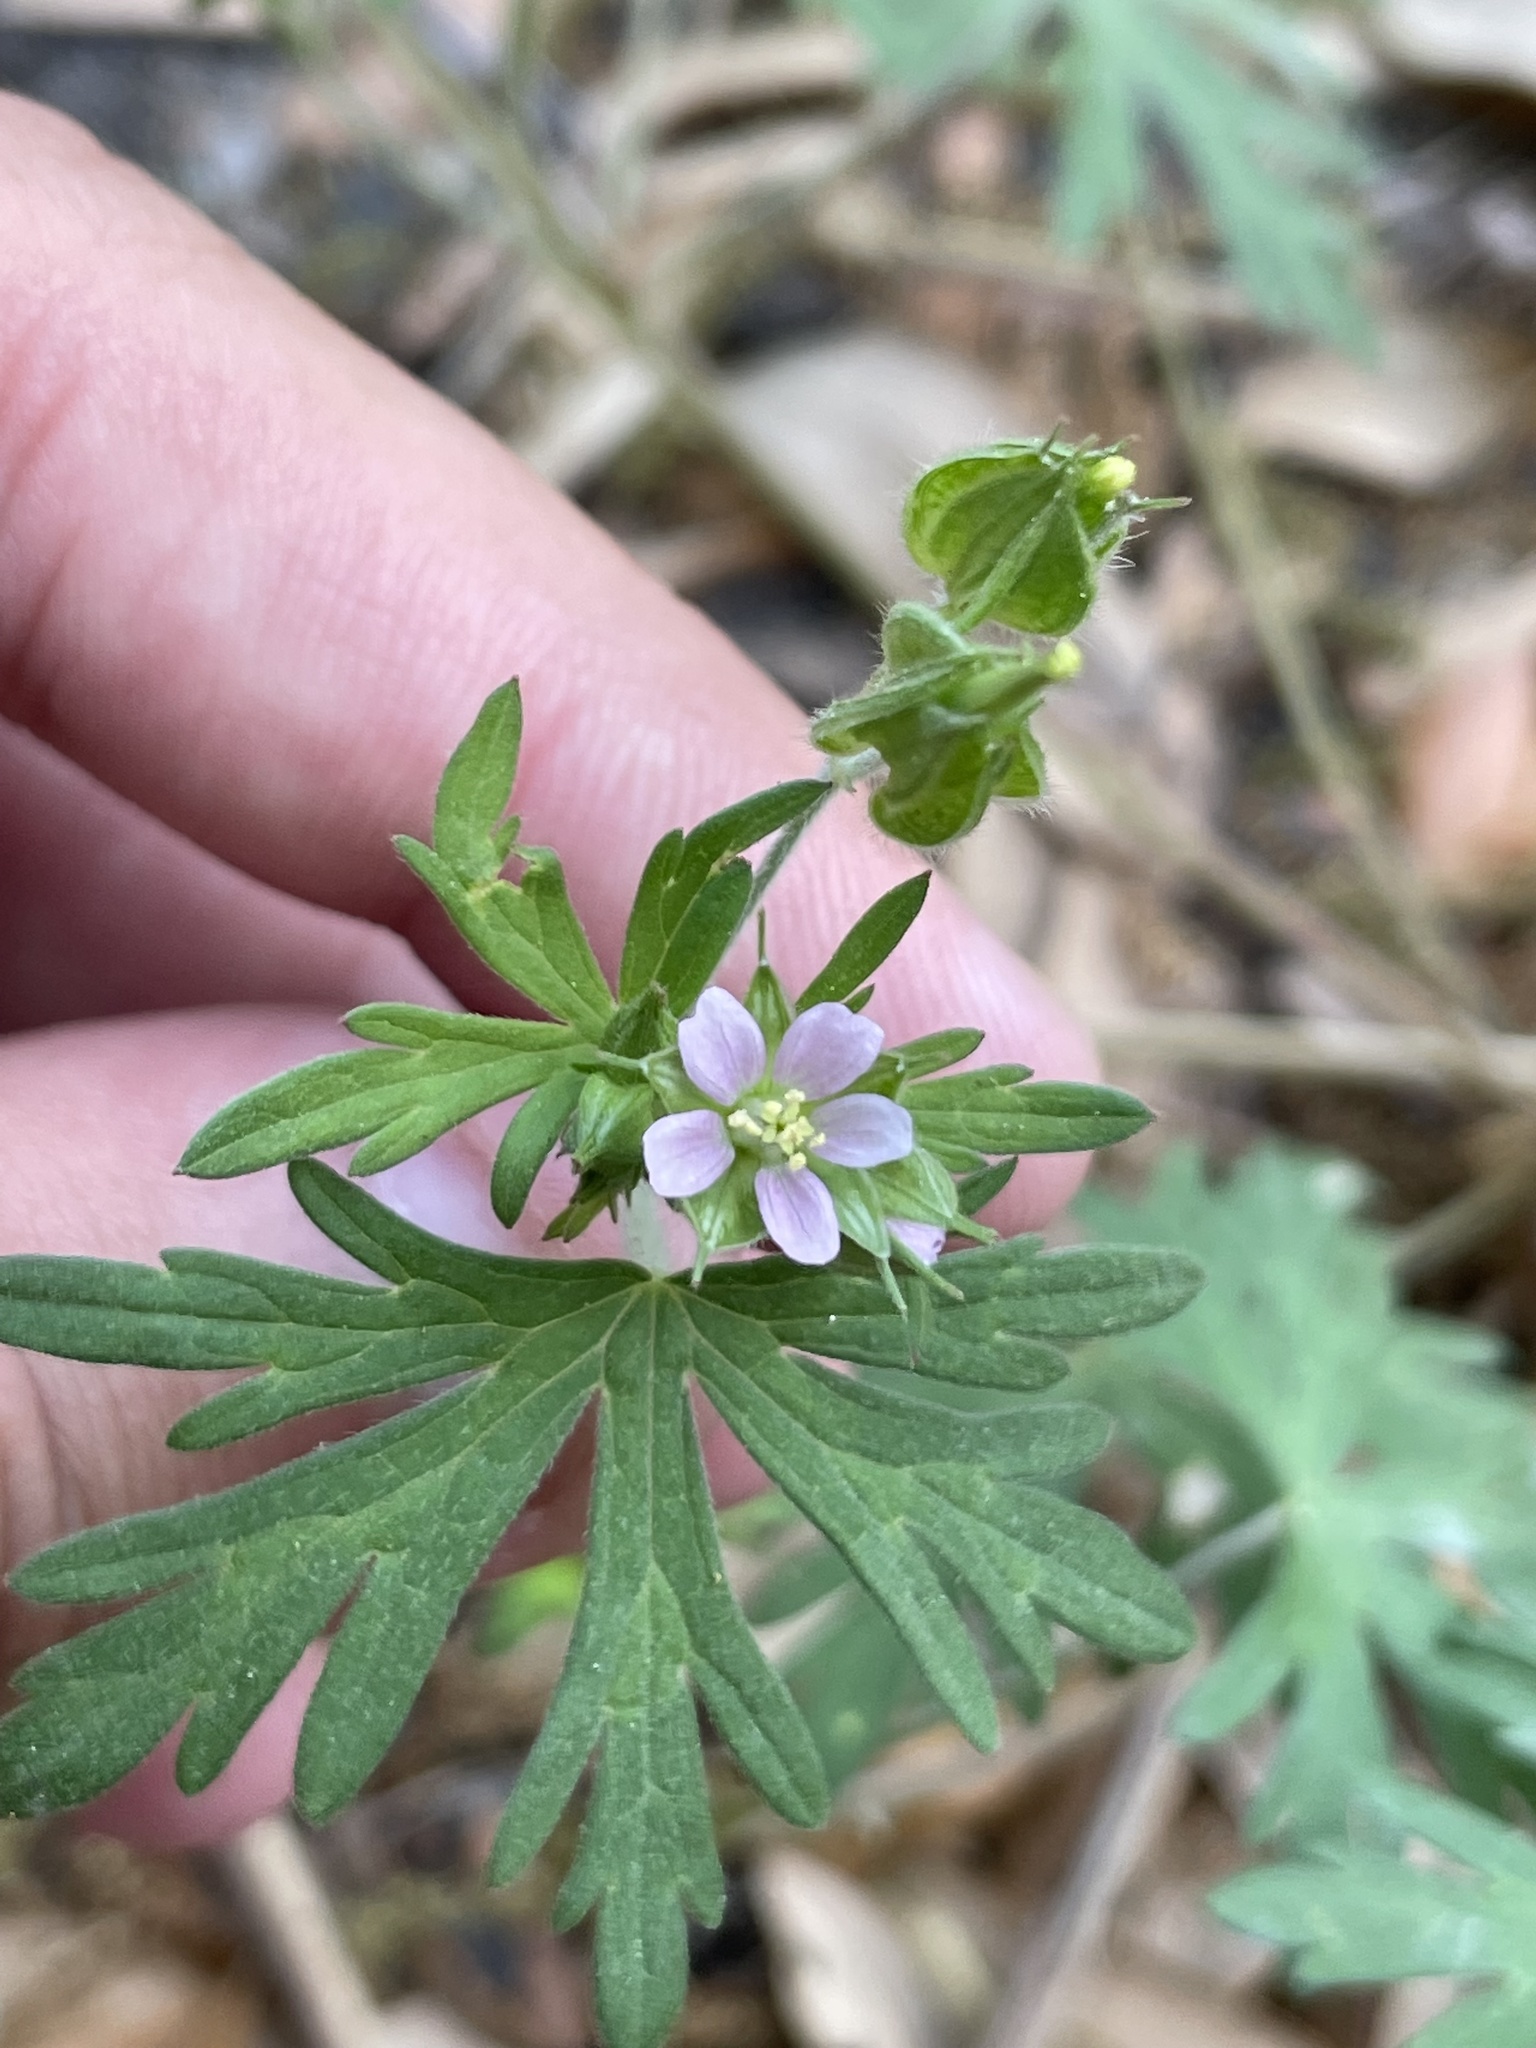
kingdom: Plantae
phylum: Tracheophyta
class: Magnoliopsida
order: Geraniales
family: Geraniaceae
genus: Geranium
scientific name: Geranium carolinianum
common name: Carolina crane's-bill
